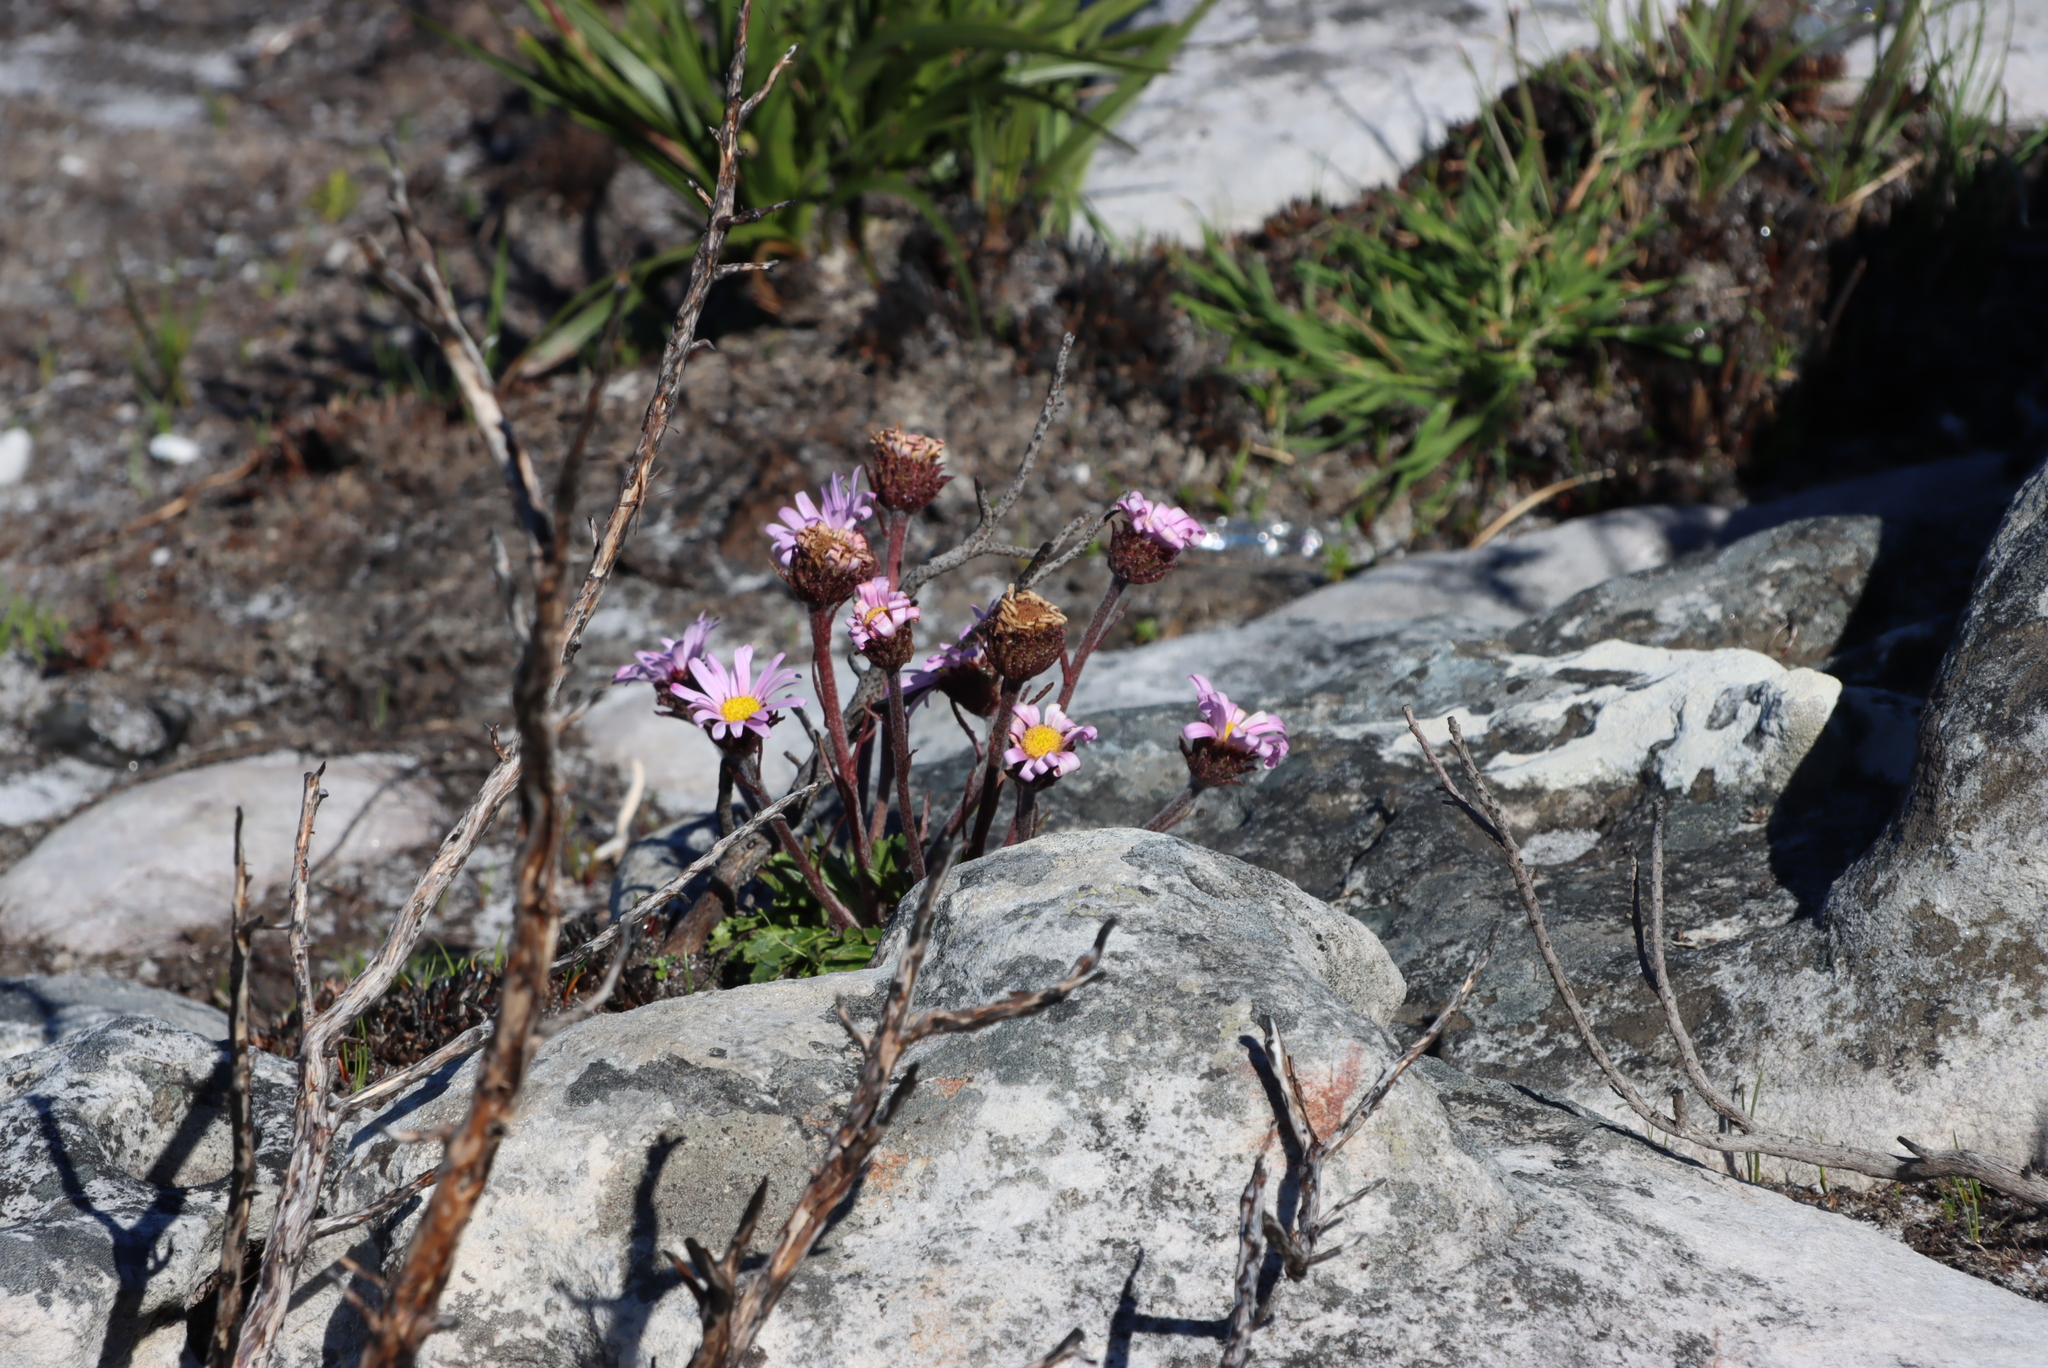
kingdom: Plantae
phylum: Tracheophyta
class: Magnoliopsida
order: Asterales
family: Asteraceae
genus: Zyrphelis
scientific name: Zyrphelis crenata
